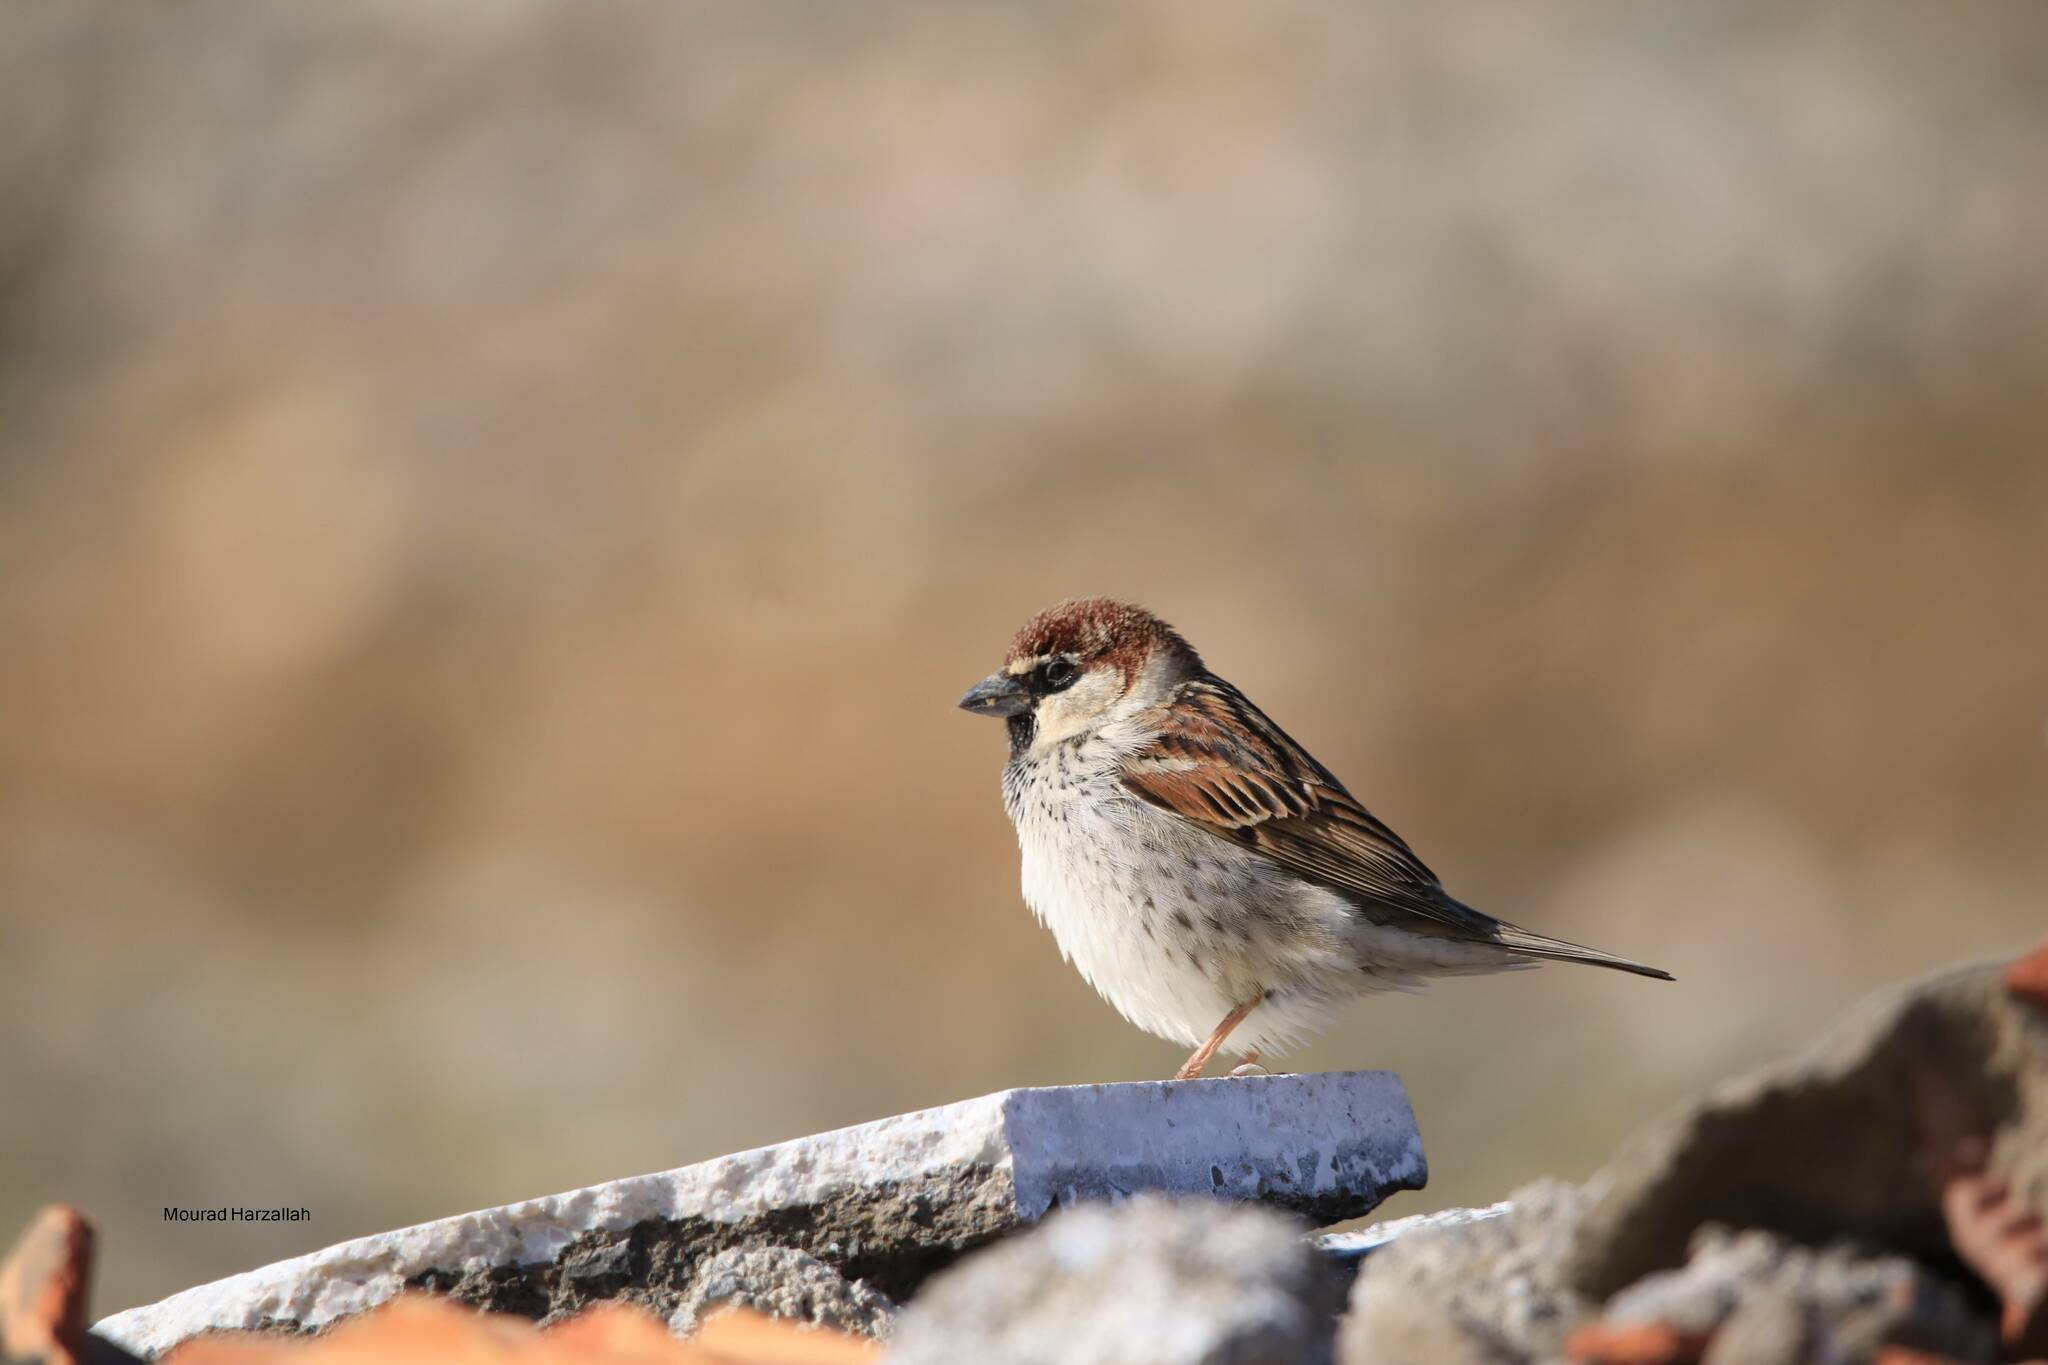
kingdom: Animalia
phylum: Chordata
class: Aves
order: Passeriformes
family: Passeridae
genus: Passer
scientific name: Passer hispaniolensis
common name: Spanish sparrow
